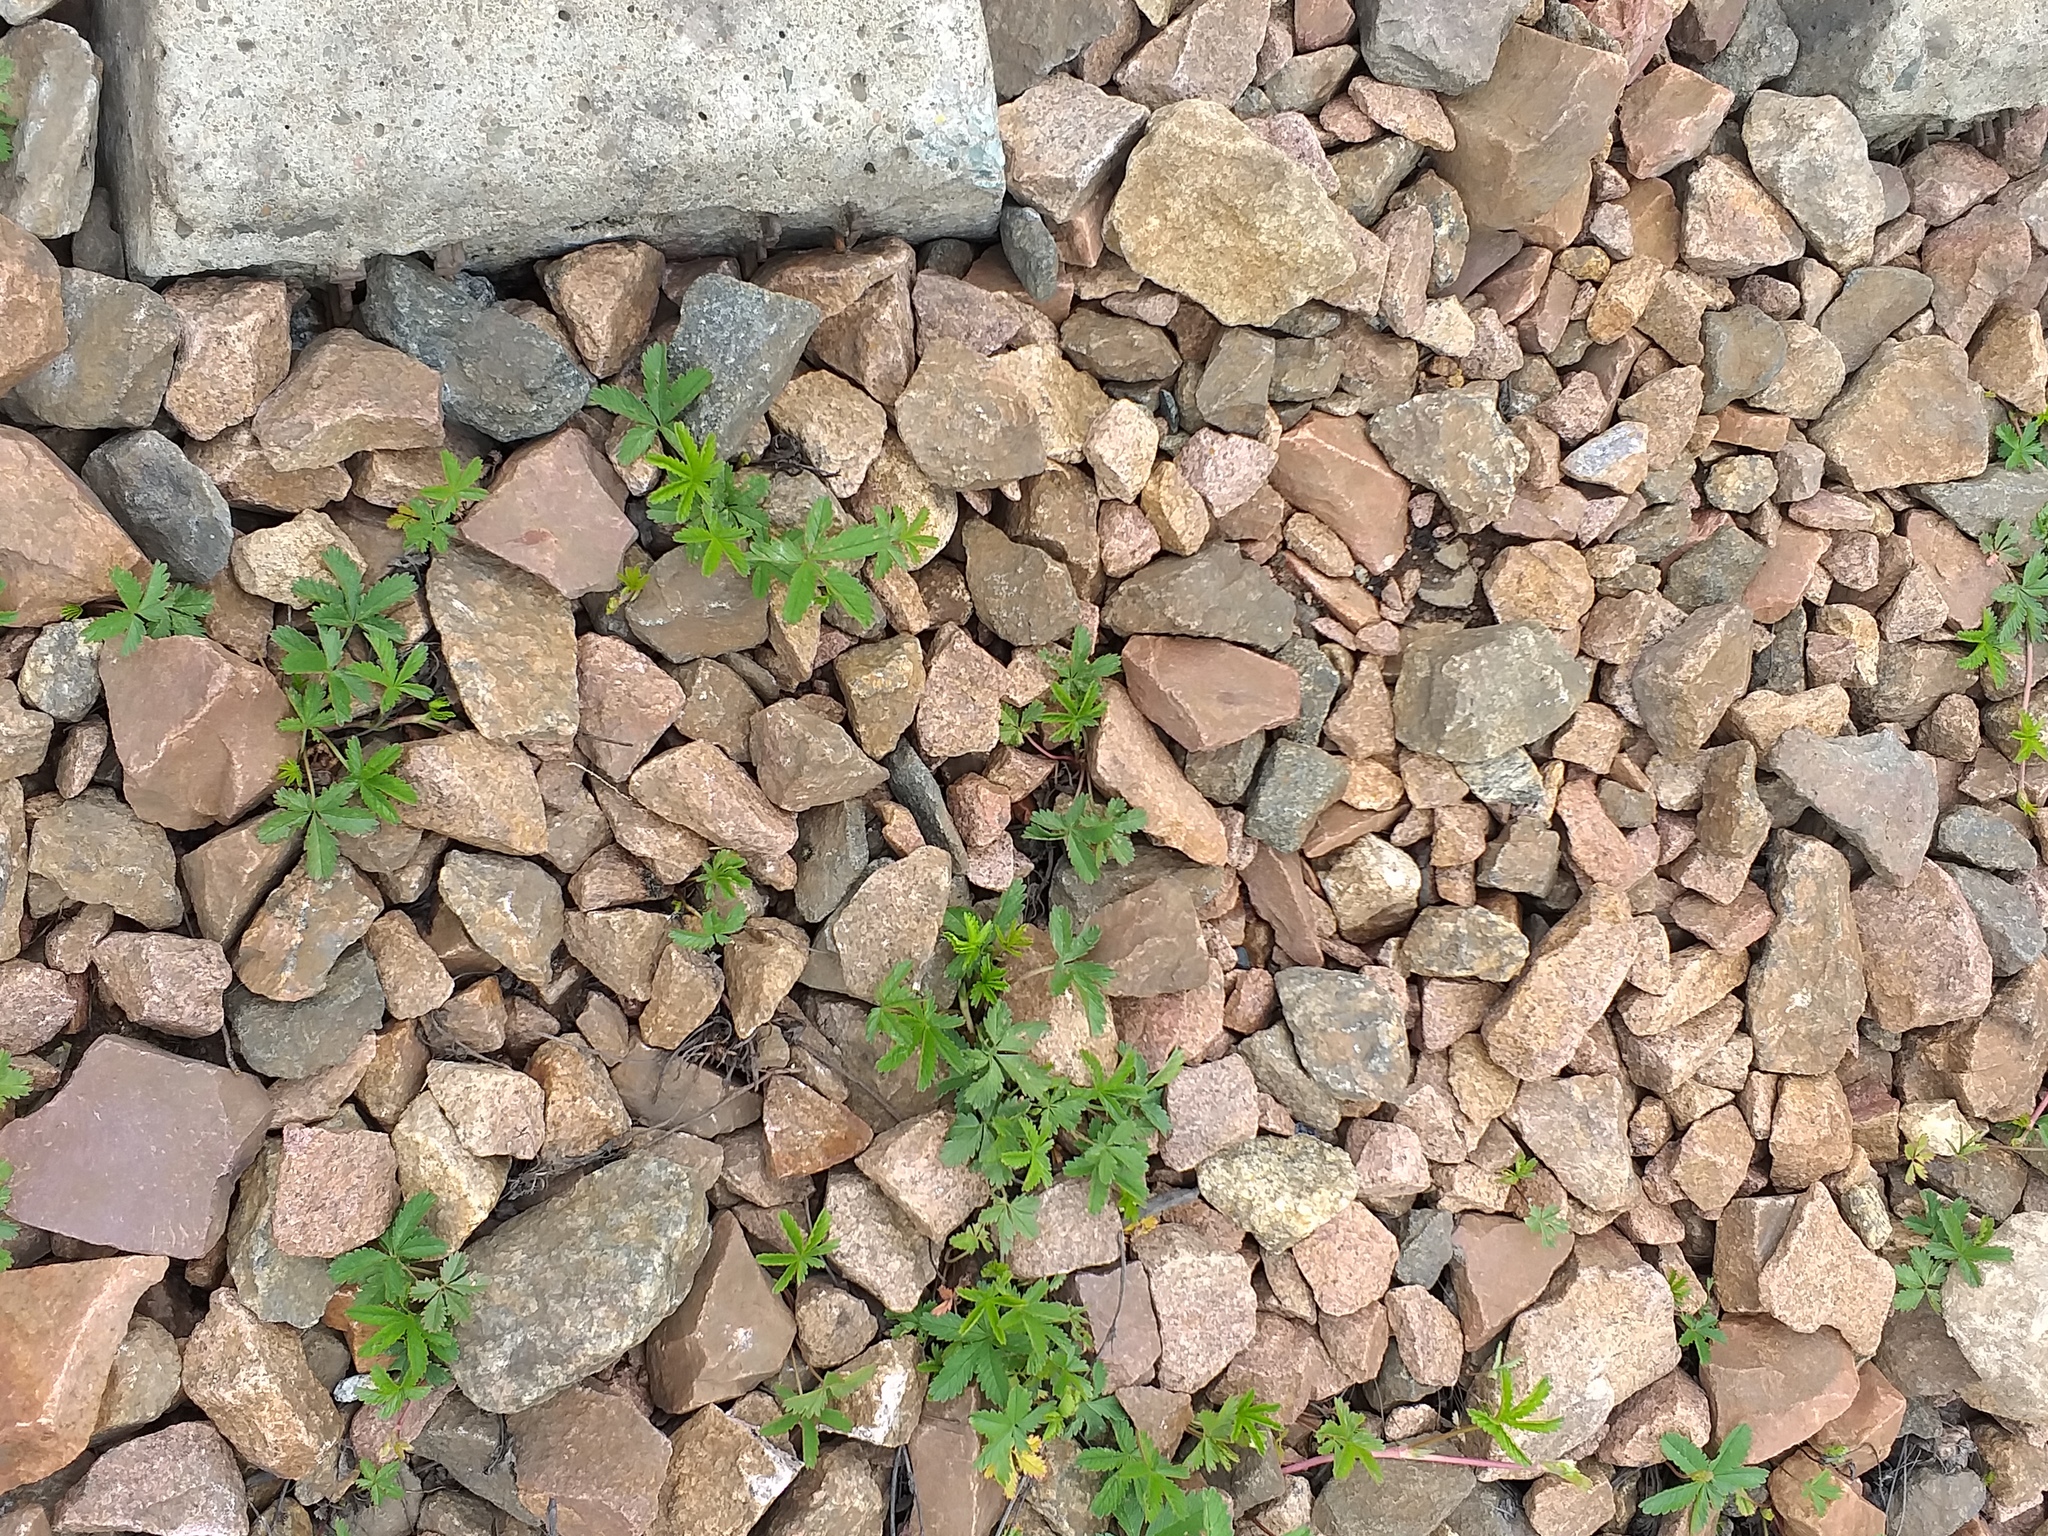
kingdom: Plantae
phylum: Tracheophyta
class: Magnoliopsida
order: Rosales
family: Rosaceae
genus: Potentilla
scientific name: Potentilla reptans
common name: Creeping cinquefoil
